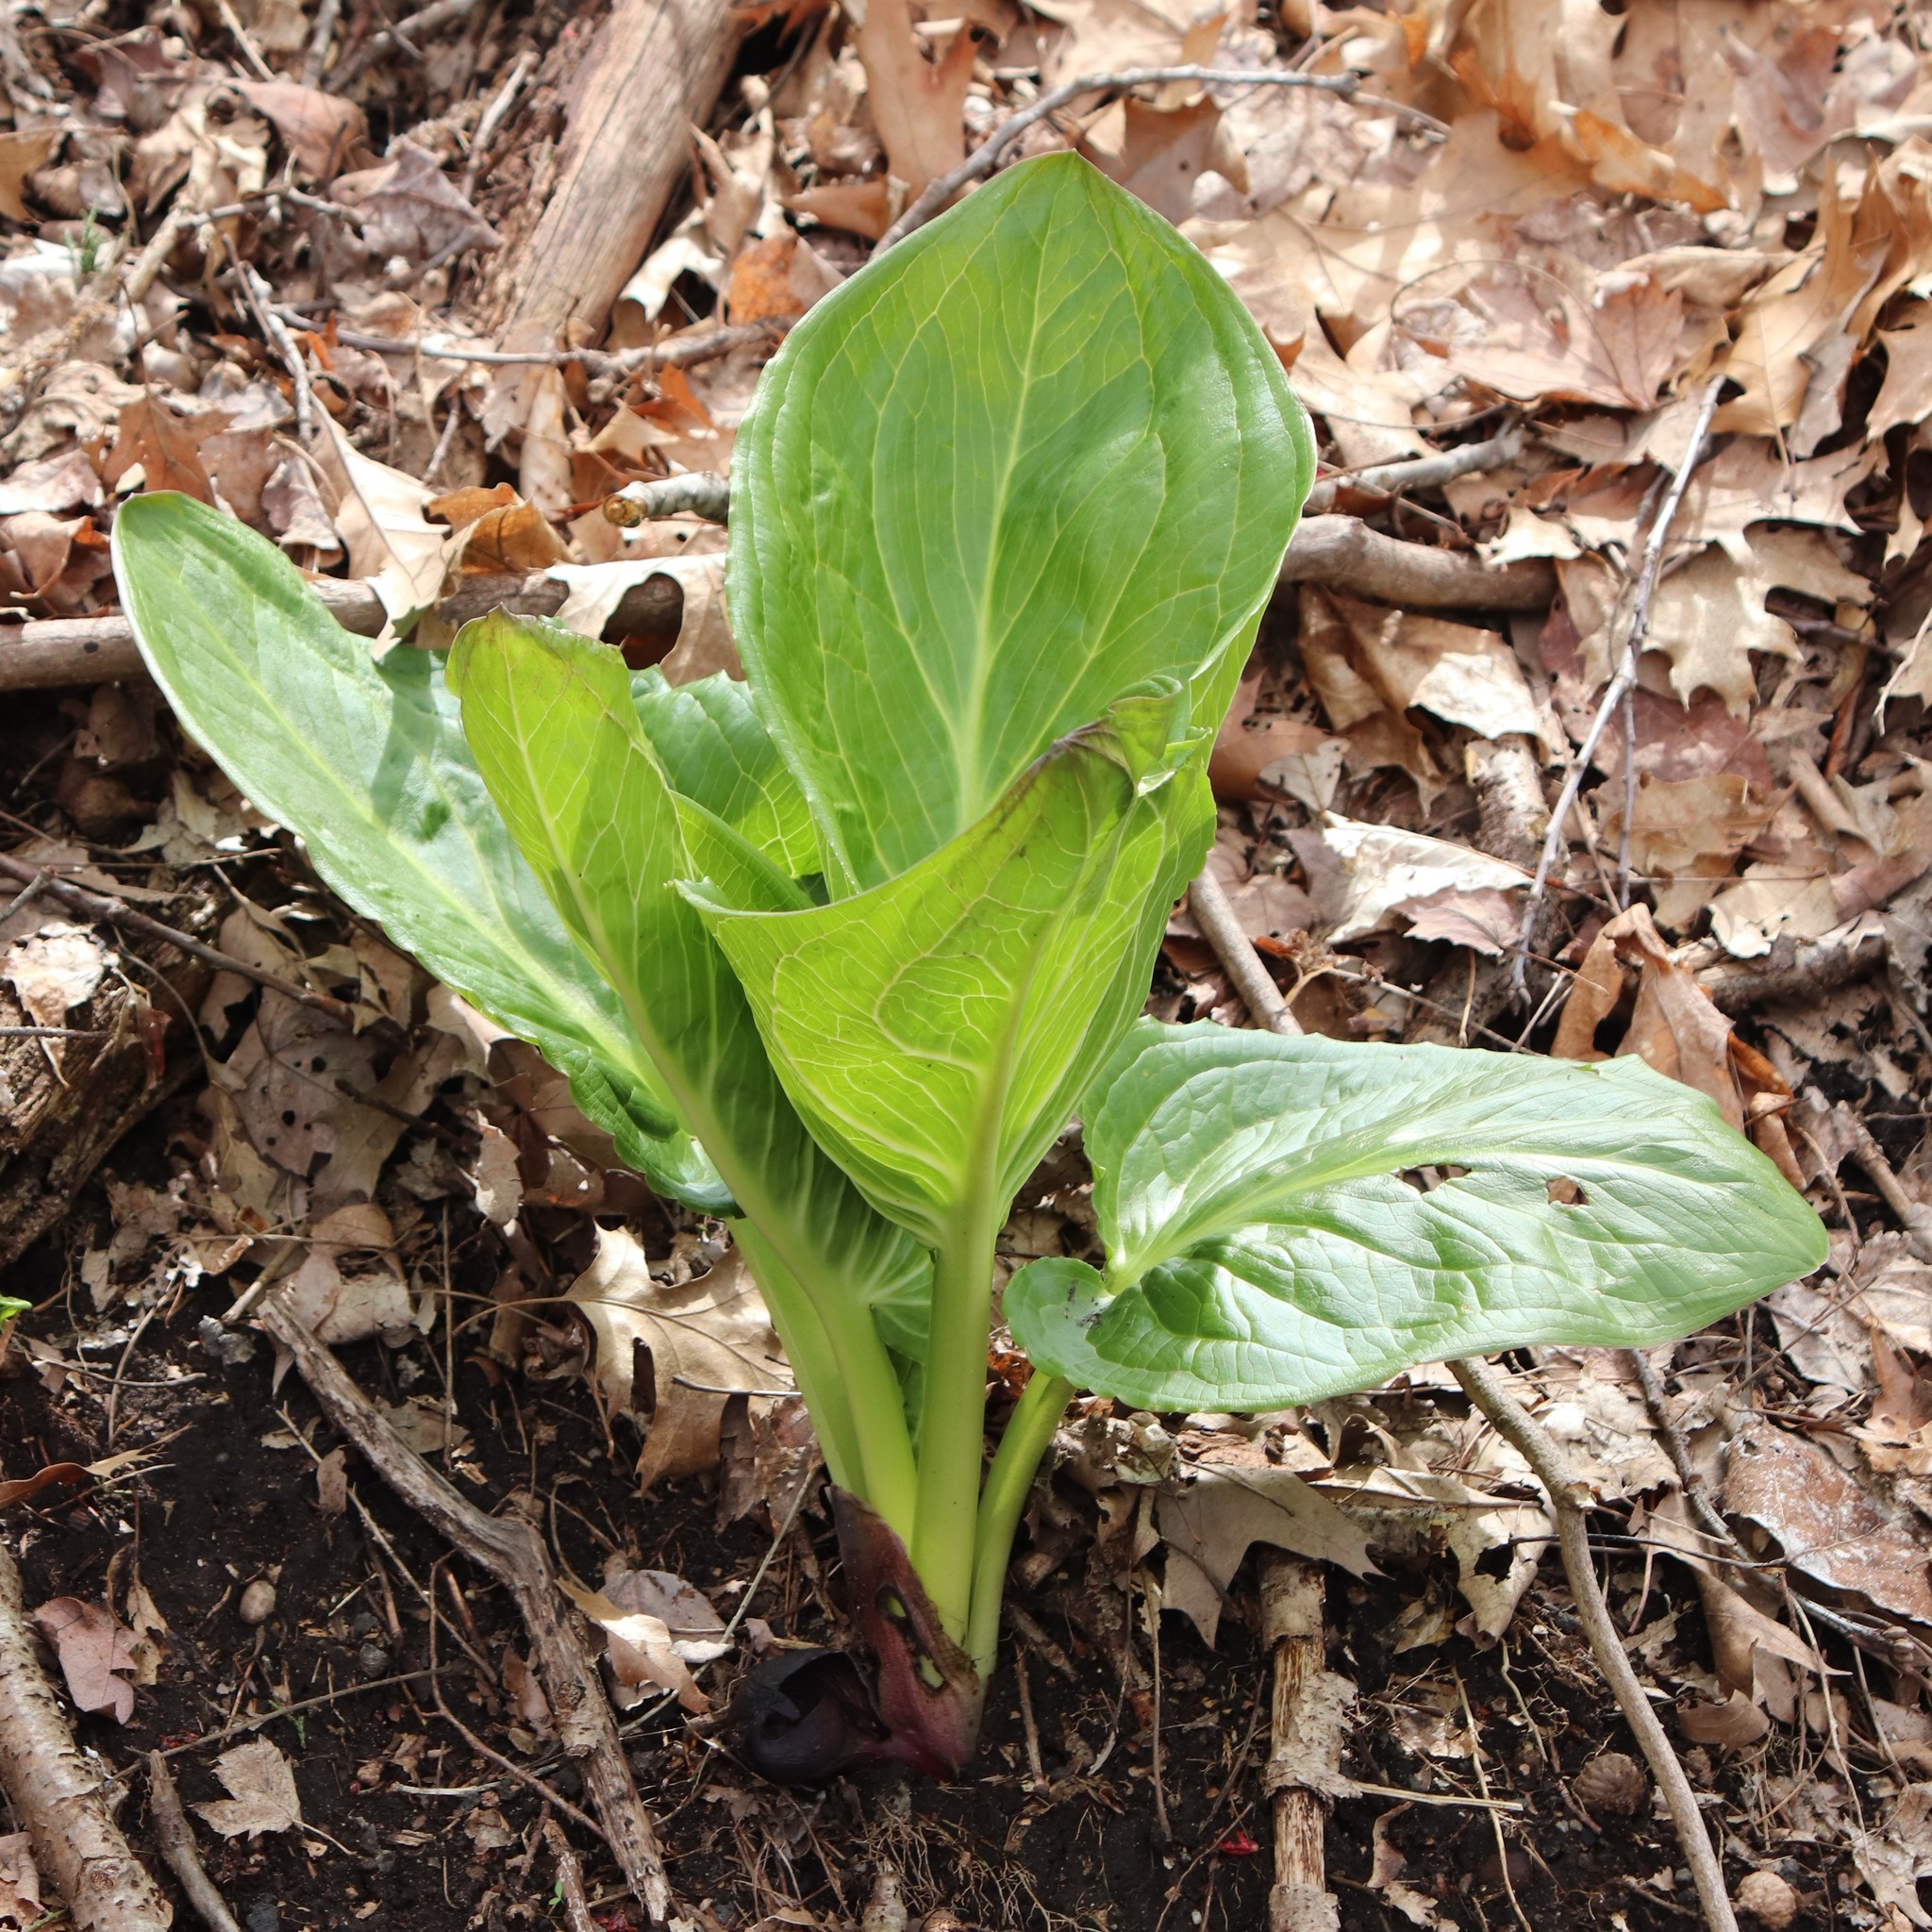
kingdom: Plantae
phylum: Tracheophyta
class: Liliopsida
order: Alismatales
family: Araceae
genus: Symplocarpus
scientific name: Symplocarpus foetidus
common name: Eastern skunk cabbage
